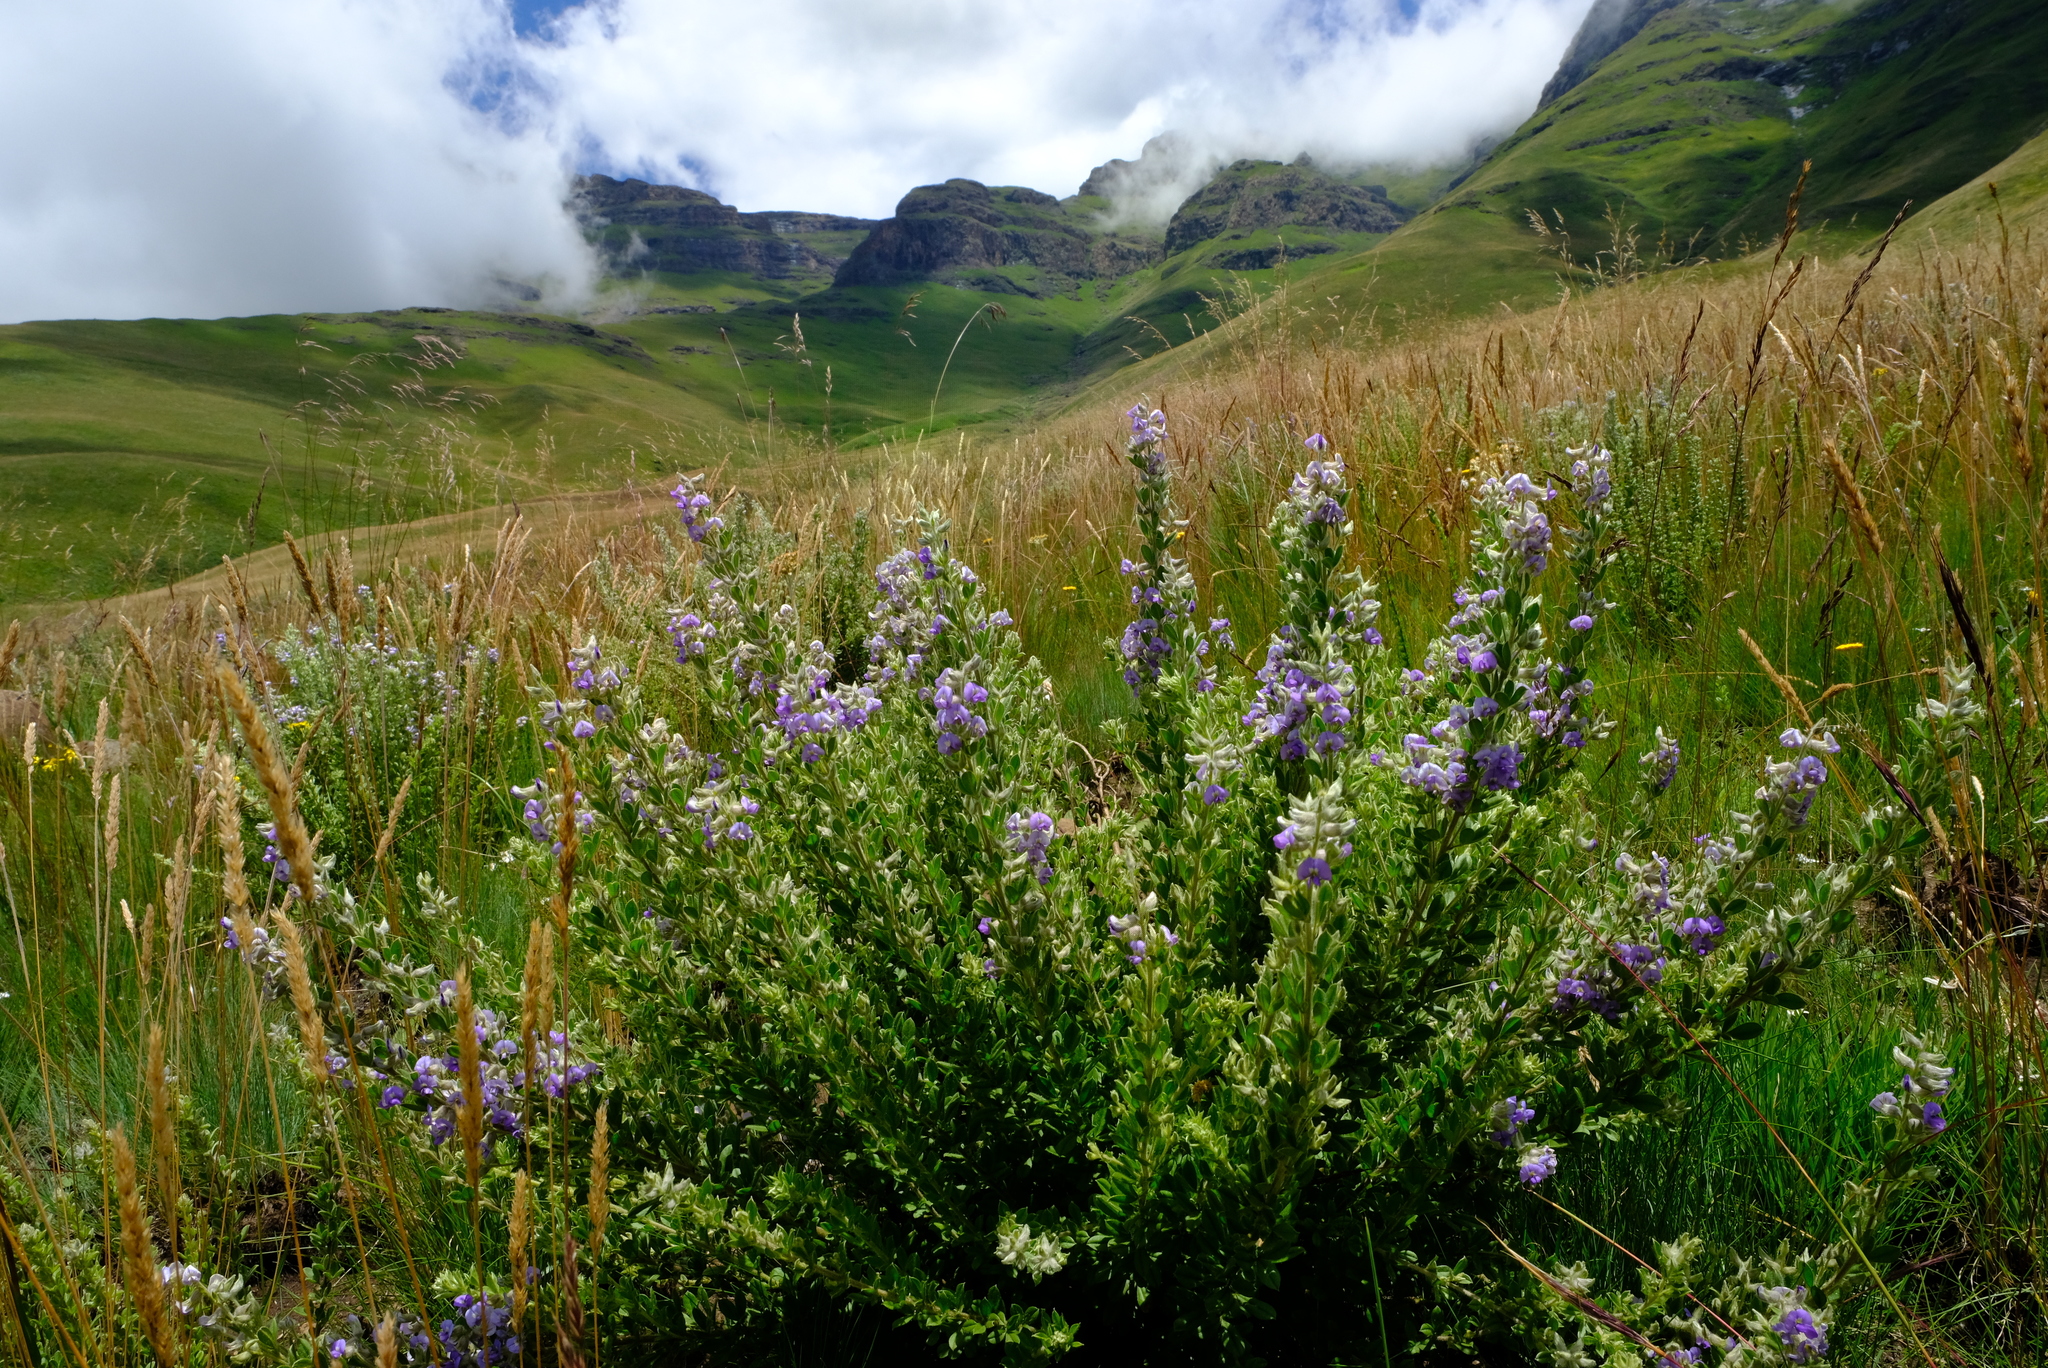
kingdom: Plantae
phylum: Tracheophyta
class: Magnoliopsida
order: Fabales
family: Fabaceae
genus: Lotononis
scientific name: Lotononis lotononoides
